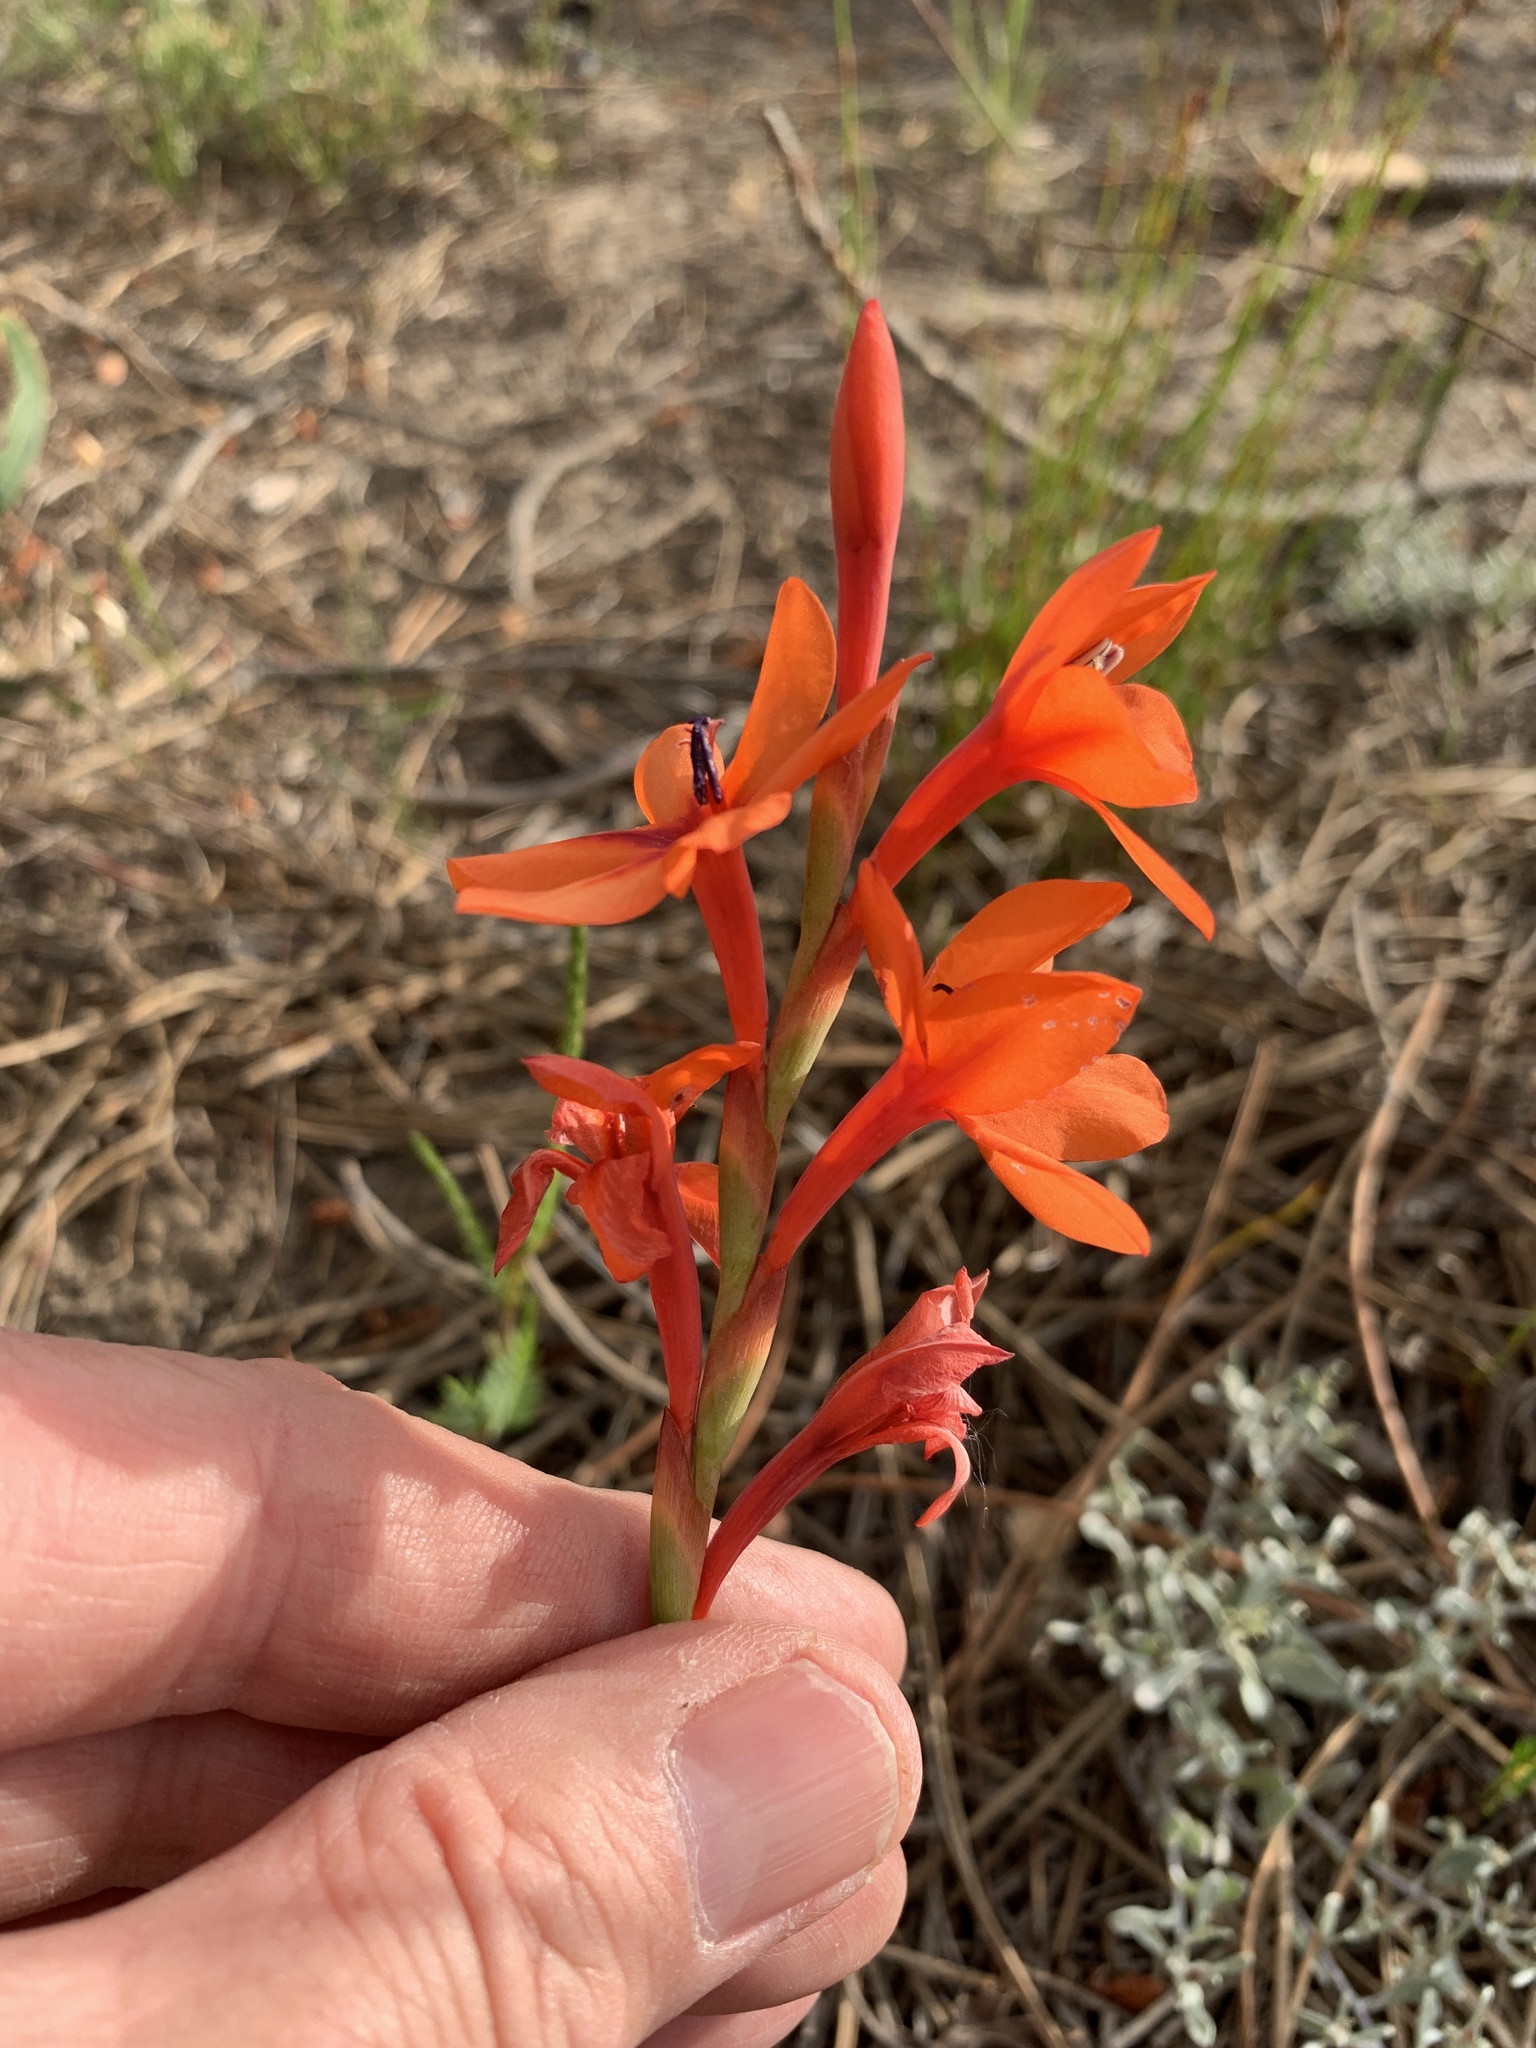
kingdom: Plantae
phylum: Tracheophyta
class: Liliopsida
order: Asparagales
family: Iridaceae
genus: Watsonia
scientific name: Watsonia stenosiphon
